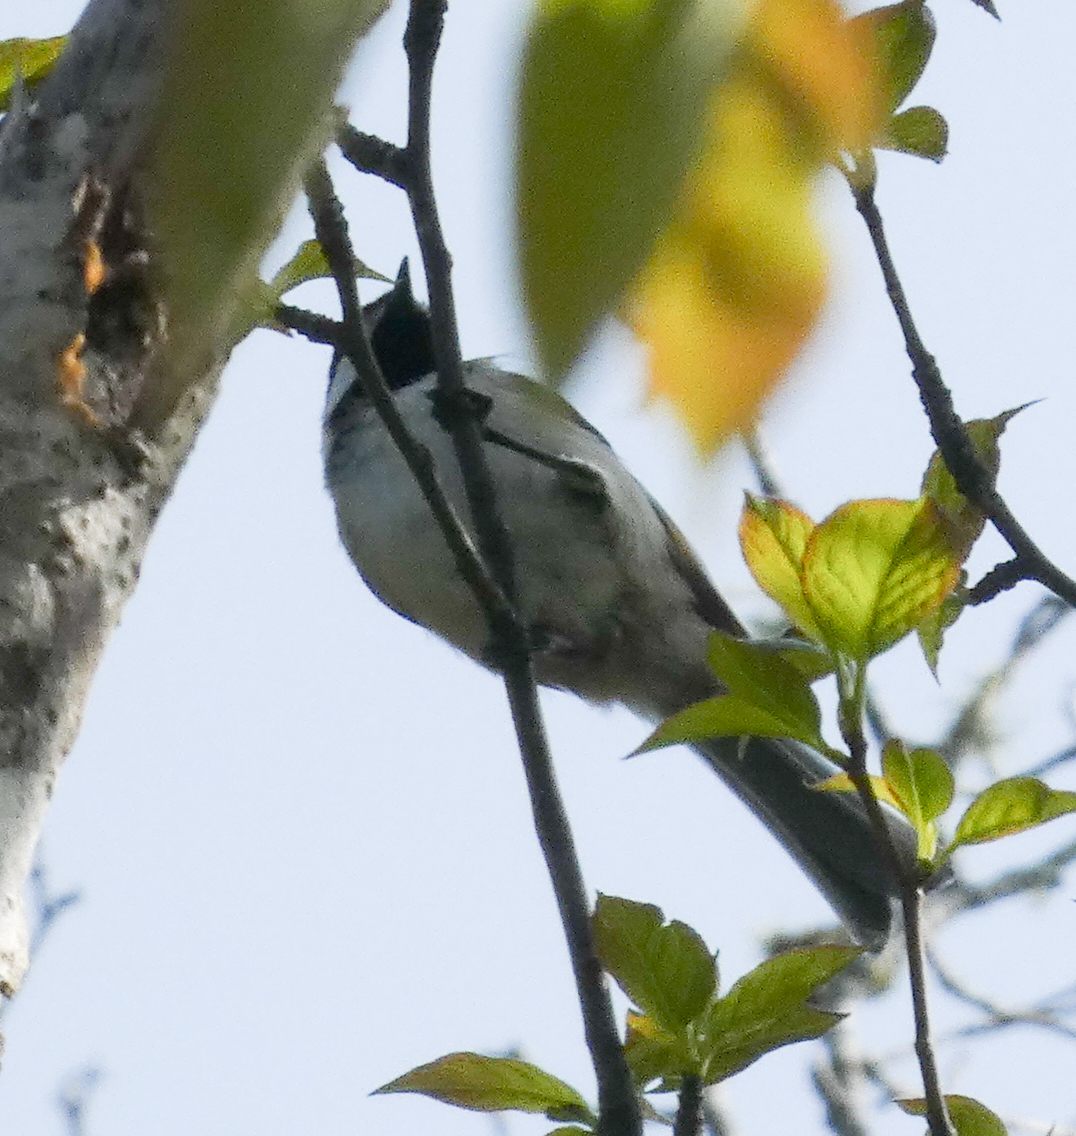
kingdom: Animalia
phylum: Chordata
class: Aves
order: Passeriformes
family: Paridae
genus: Poecile
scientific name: Poecile carolinensis
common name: Carolina chickadee
